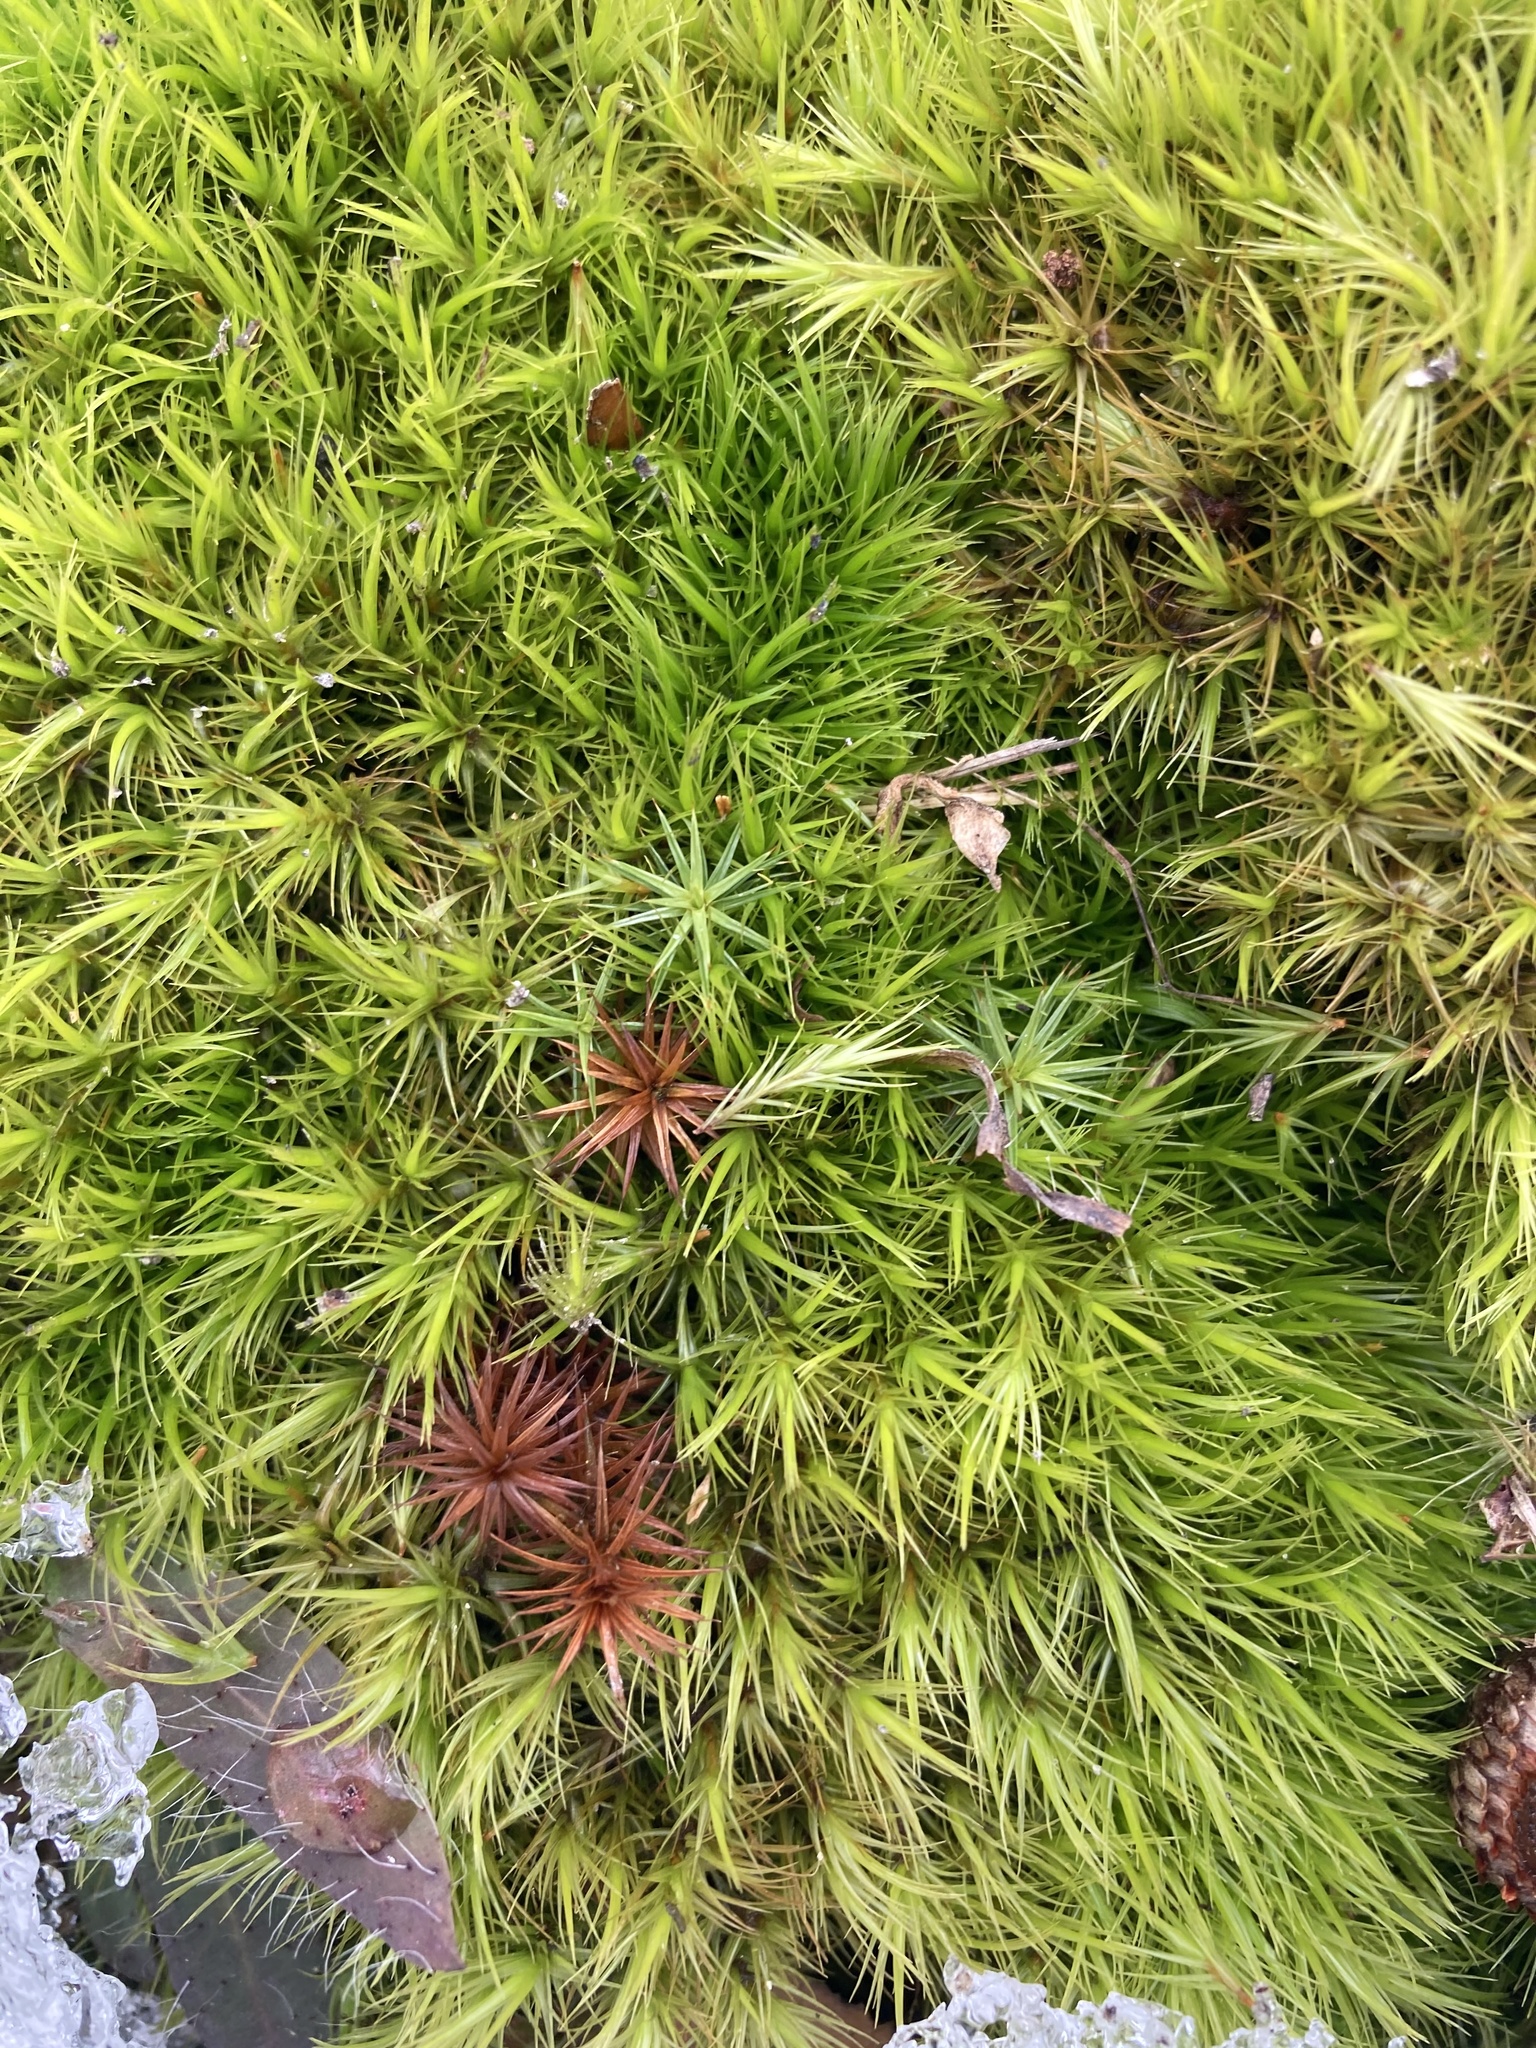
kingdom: Plantae
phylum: Bryophyta
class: Bryopsida
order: Dicranales
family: Dicranaceae
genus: Dicranum
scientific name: Dicranum scoparium
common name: Broom fork-moss
